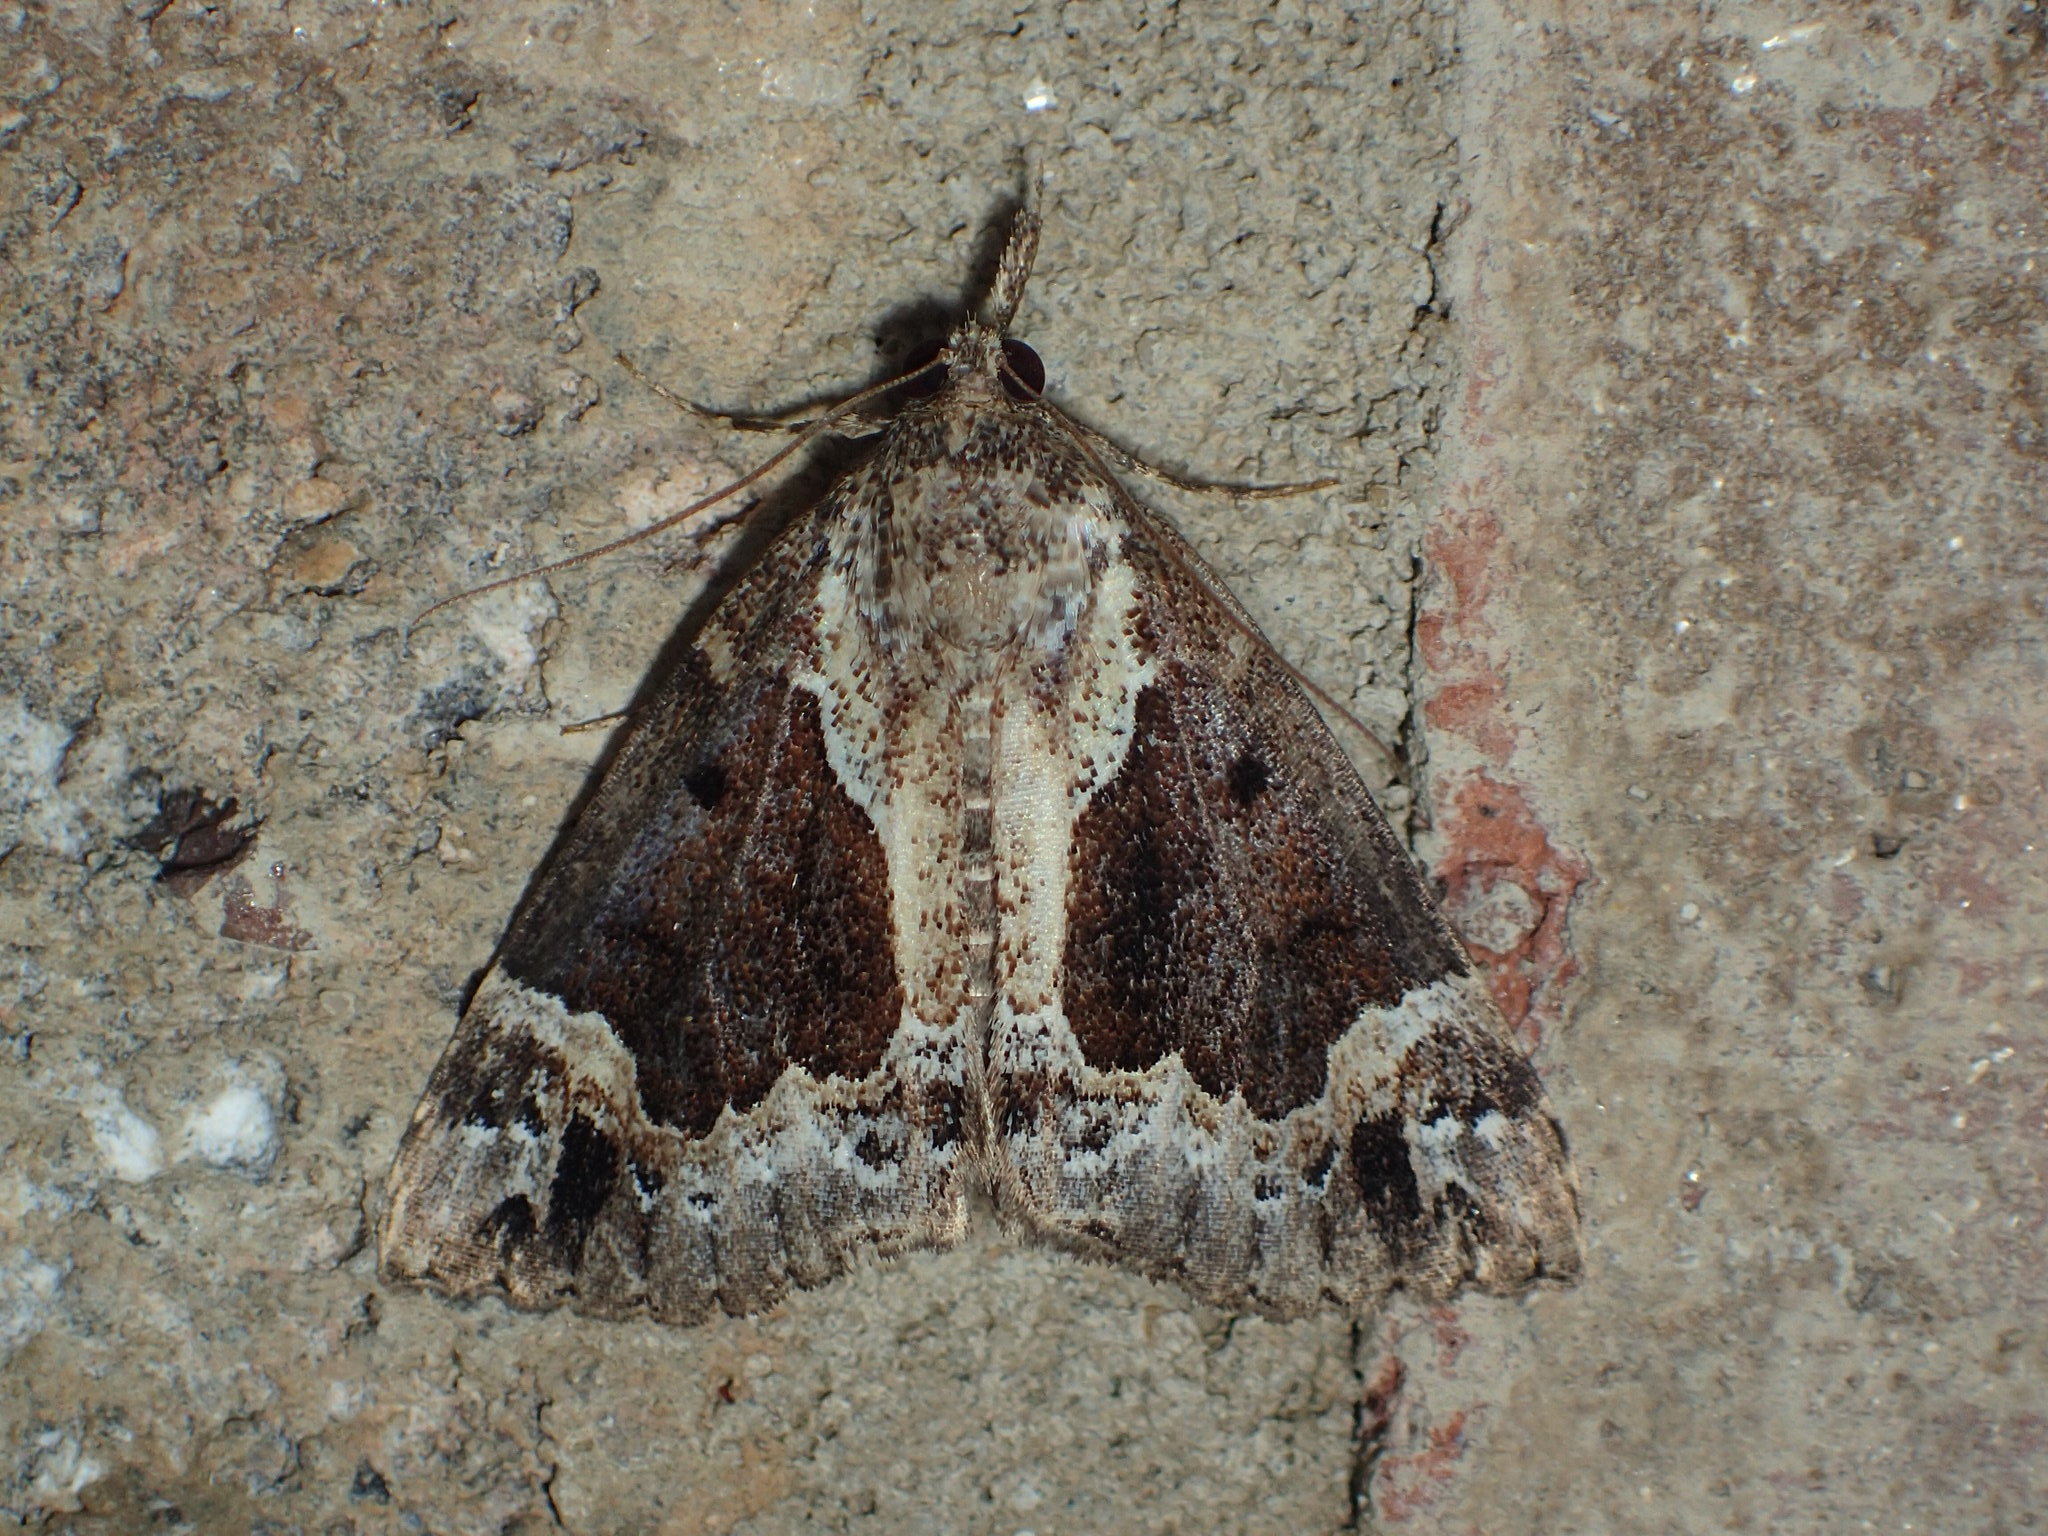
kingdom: Animalia
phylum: Arthropoda
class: Insecta
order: Lepidoptera
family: Erebidae
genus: Hypena
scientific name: Hypena palparia
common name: Mottled bomolocha moth
